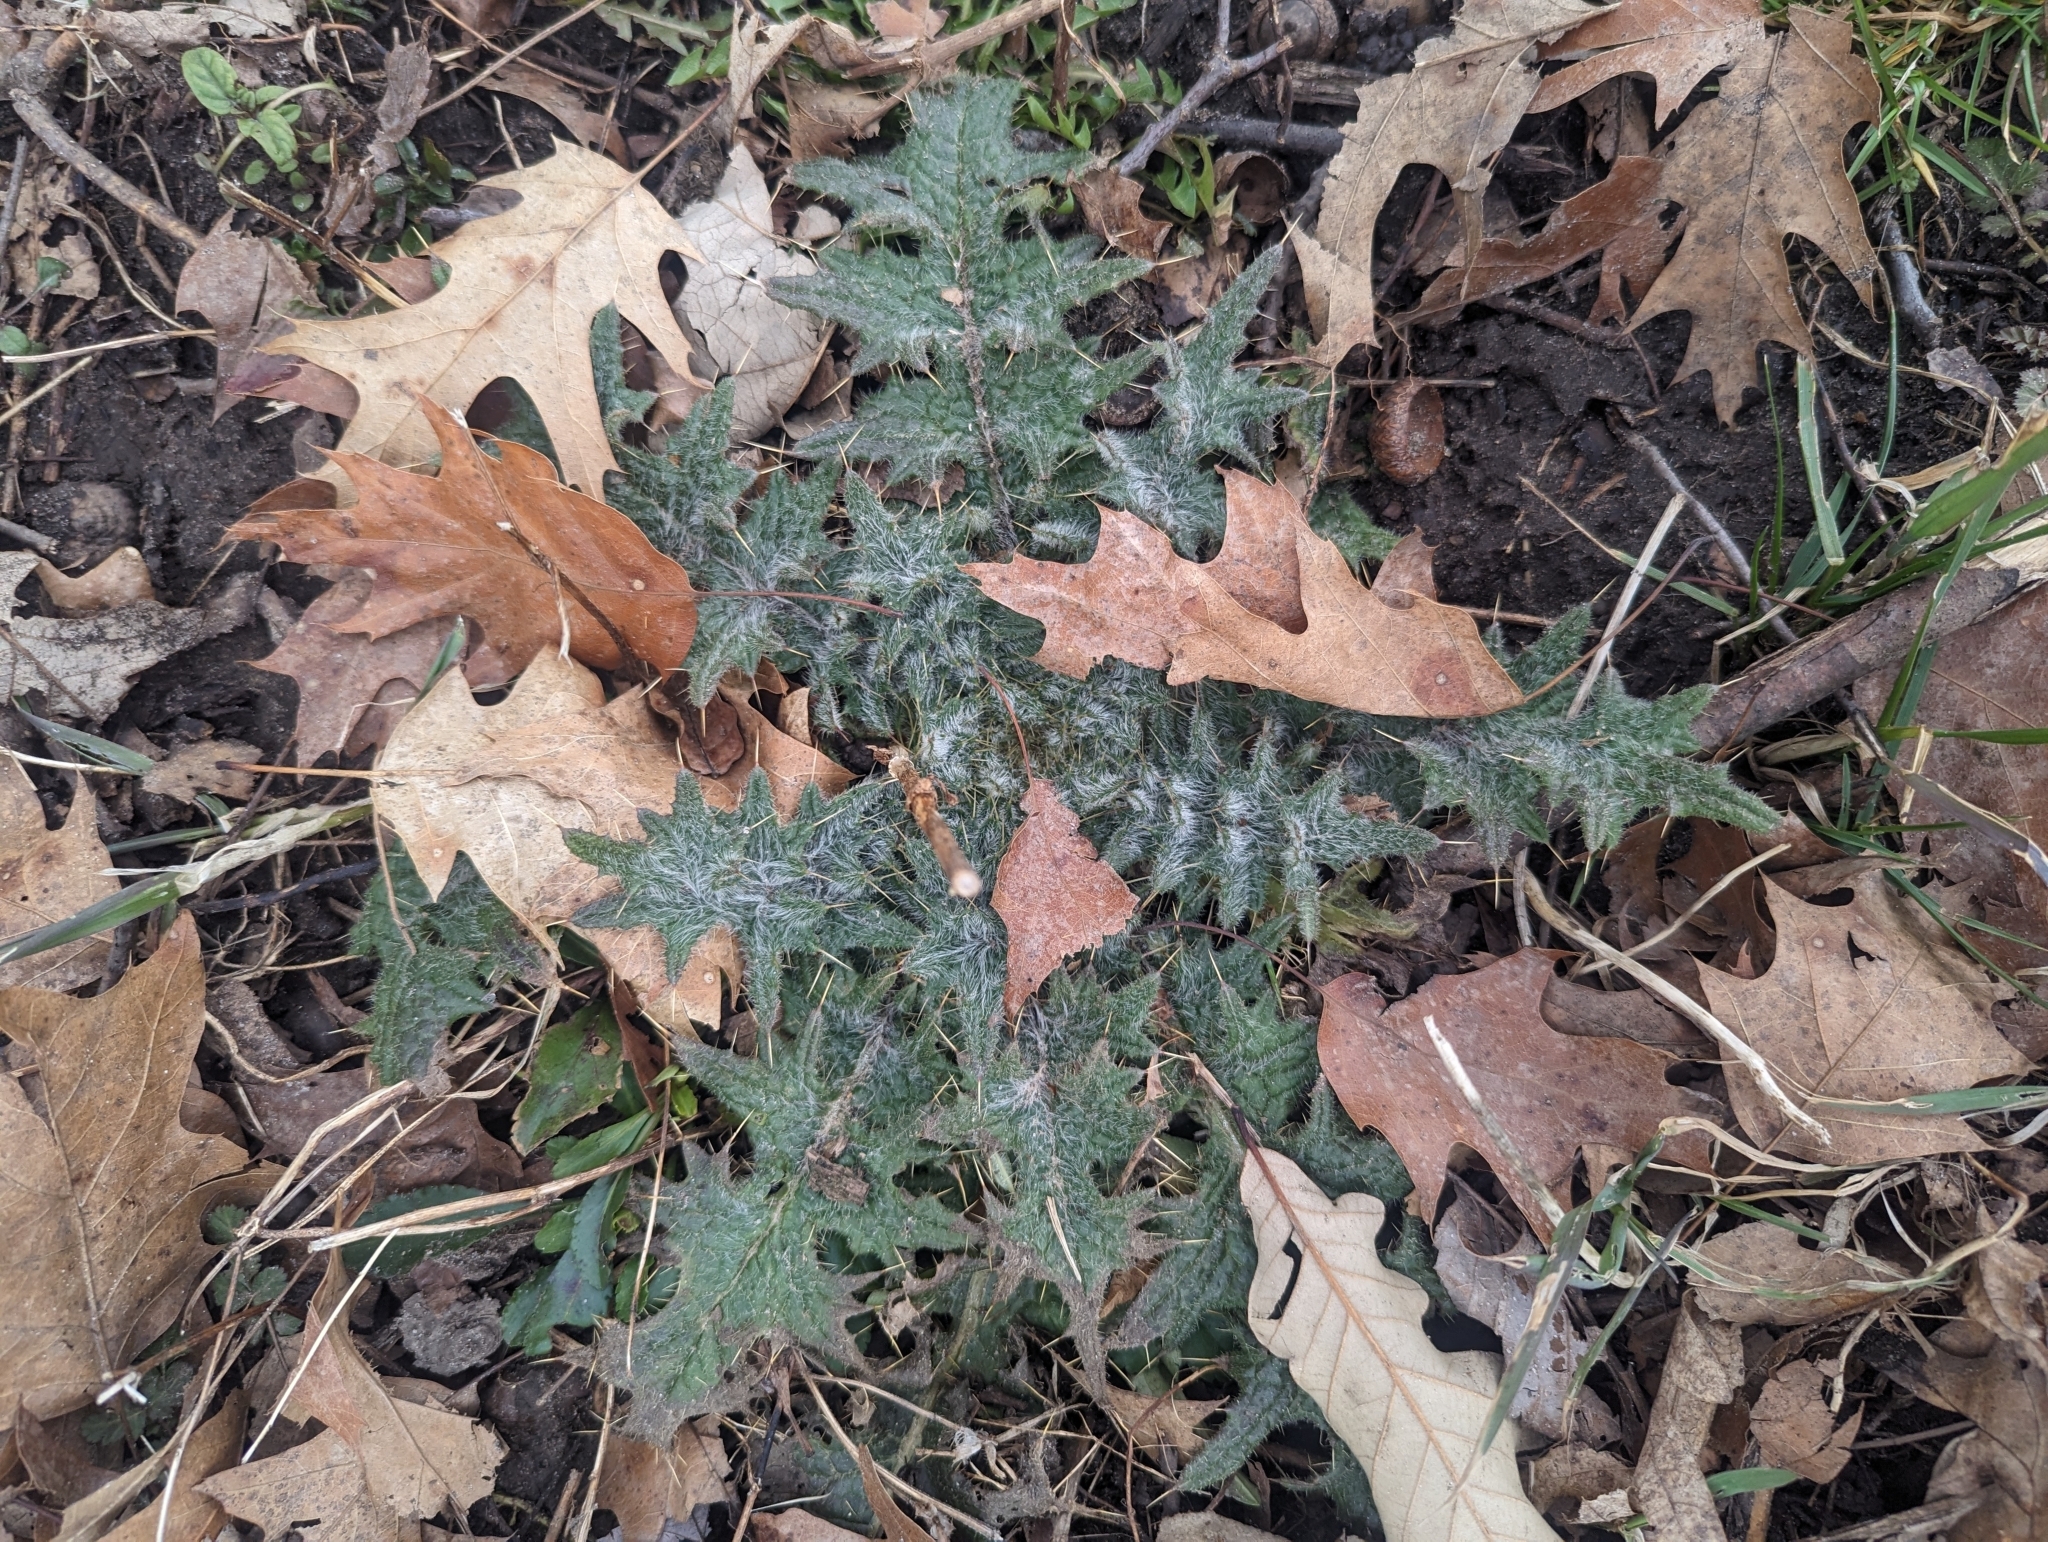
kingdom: Plantae
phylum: Tracheophyta
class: Magnoliopsida
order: Asterales
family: Asteraceae
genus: Cirsium
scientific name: Cirsium vulgare
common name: Bull thistle
